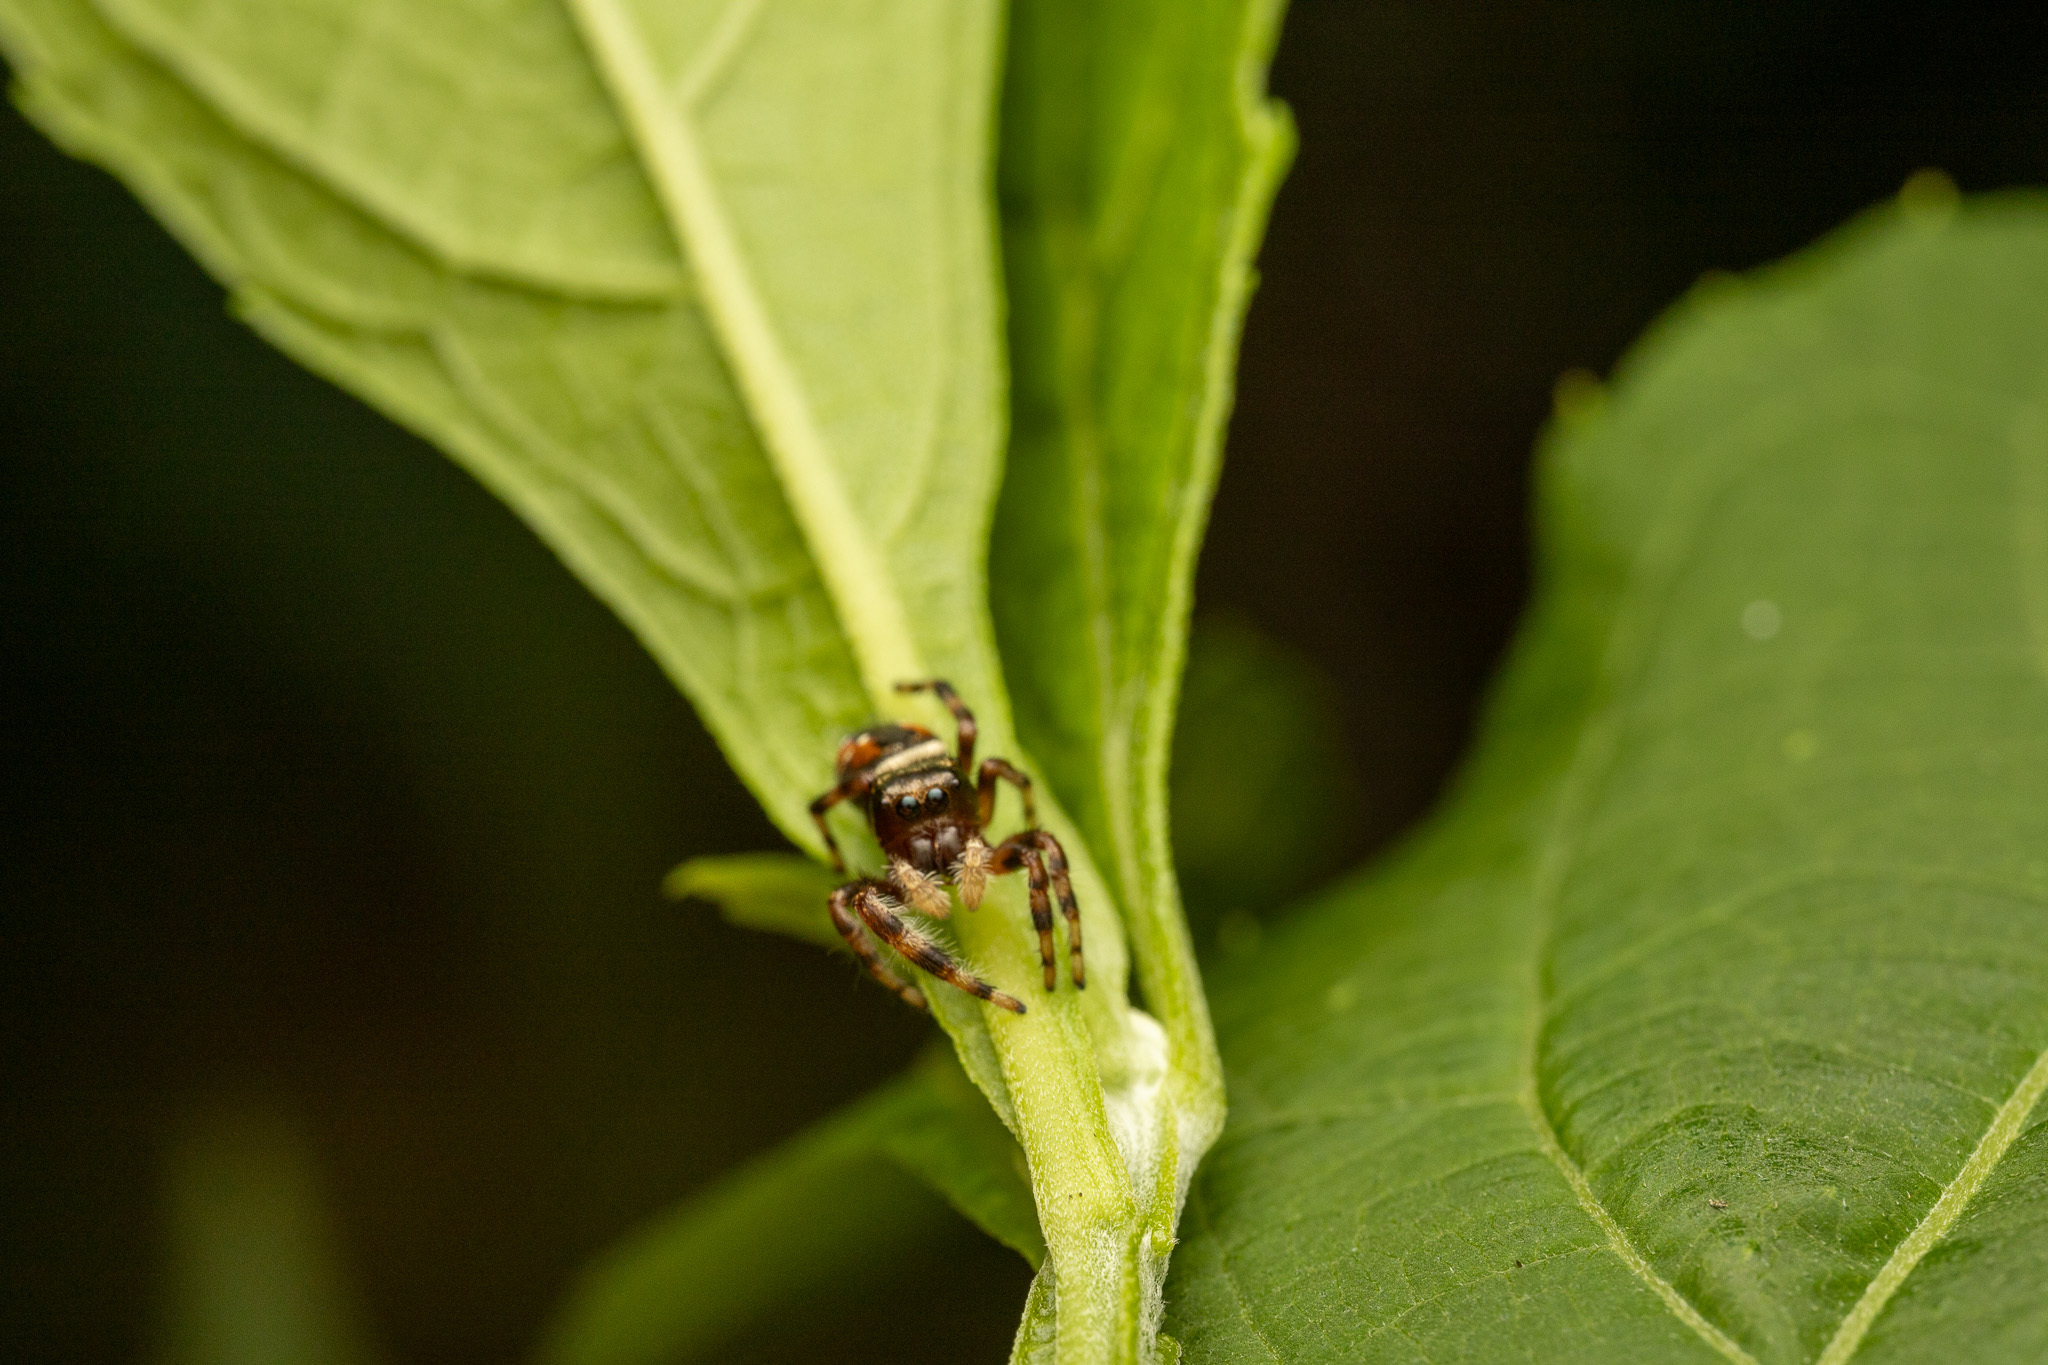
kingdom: Animalia
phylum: Arthropoda
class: Arachnida
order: Araneae
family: Salticidae
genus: Phidippus
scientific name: Phidippus clarus
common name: Brilliant jumping spider
